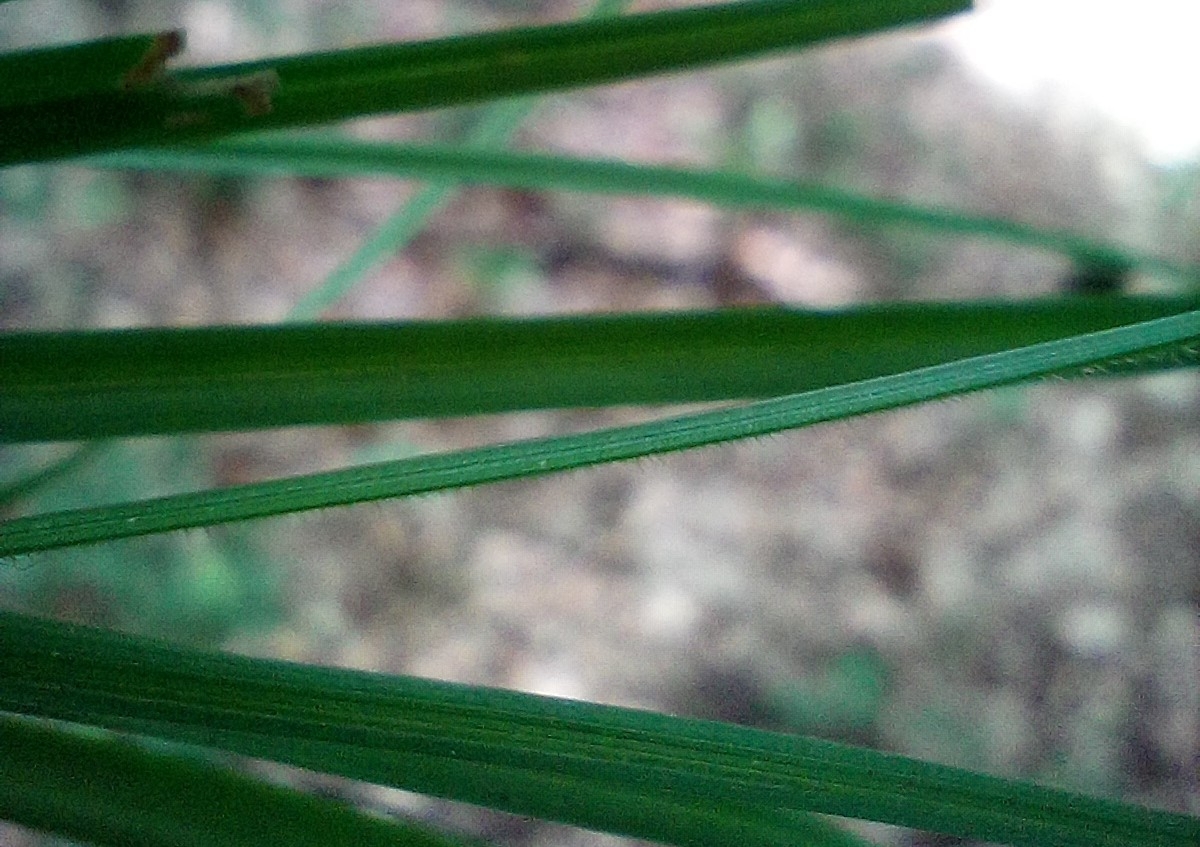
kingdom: Plantae
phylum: Tracheophyta
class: Liliopsida
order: Poales
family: Cyperaceae
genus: Carex
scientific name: Carex montana
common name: Soft-leaved sedge
